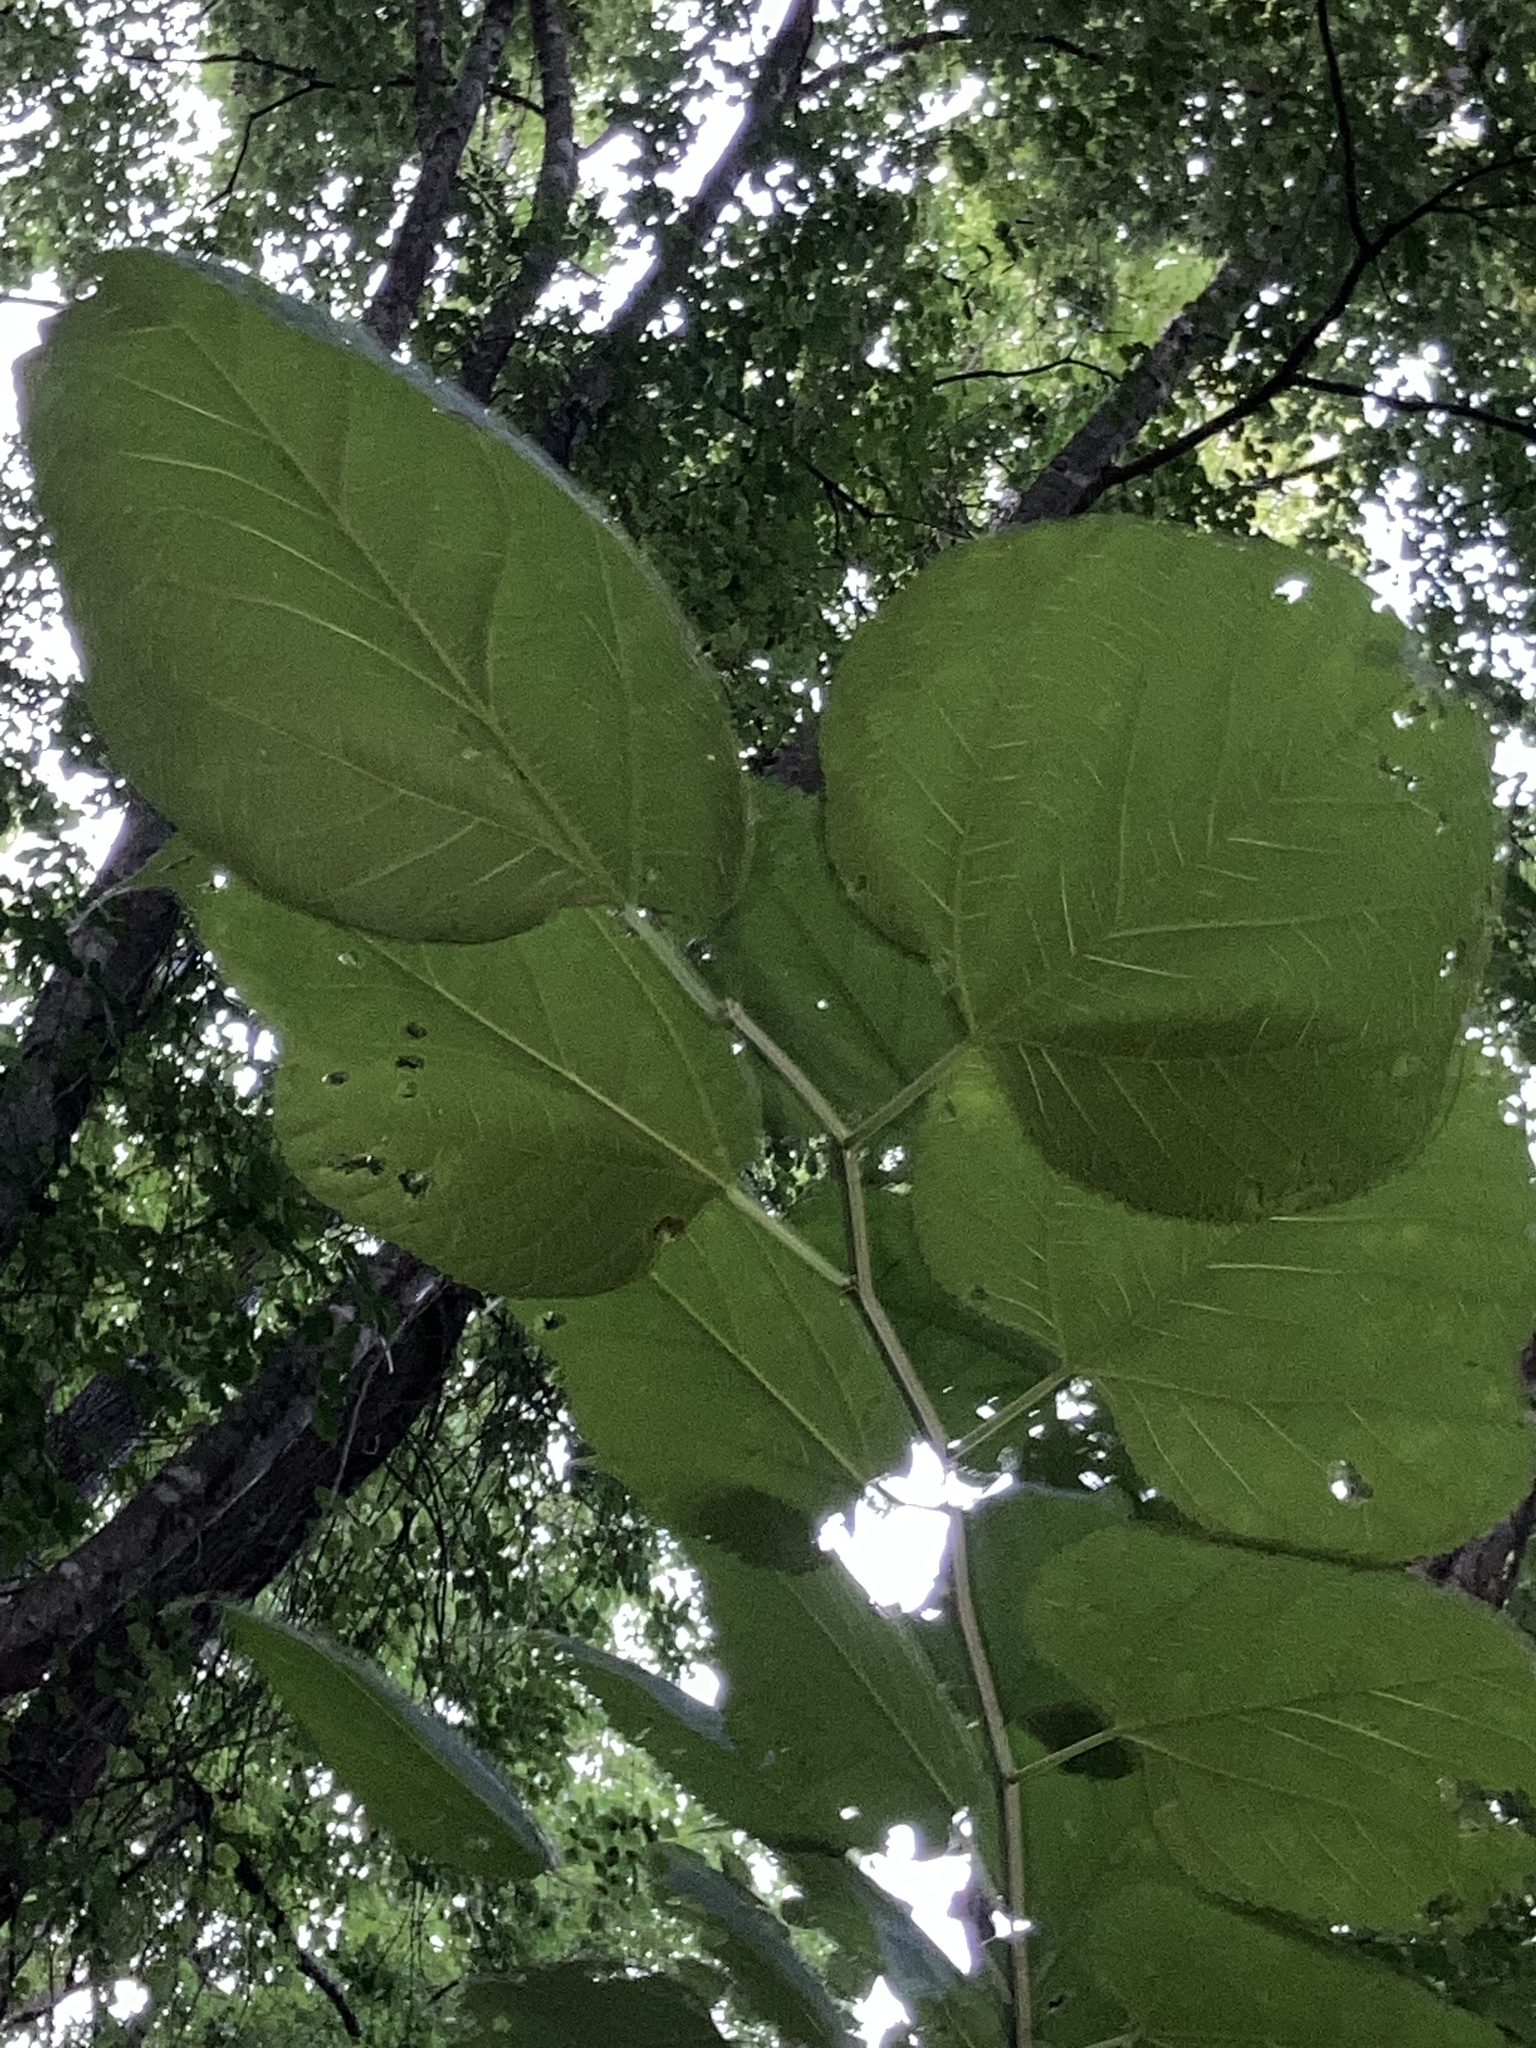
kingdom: Plantae
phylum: Tracheophyta
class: Magnoliopsida
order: Rosales
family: Moraceae
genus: Morus
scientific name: Morus rubra
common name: Red mulberry
